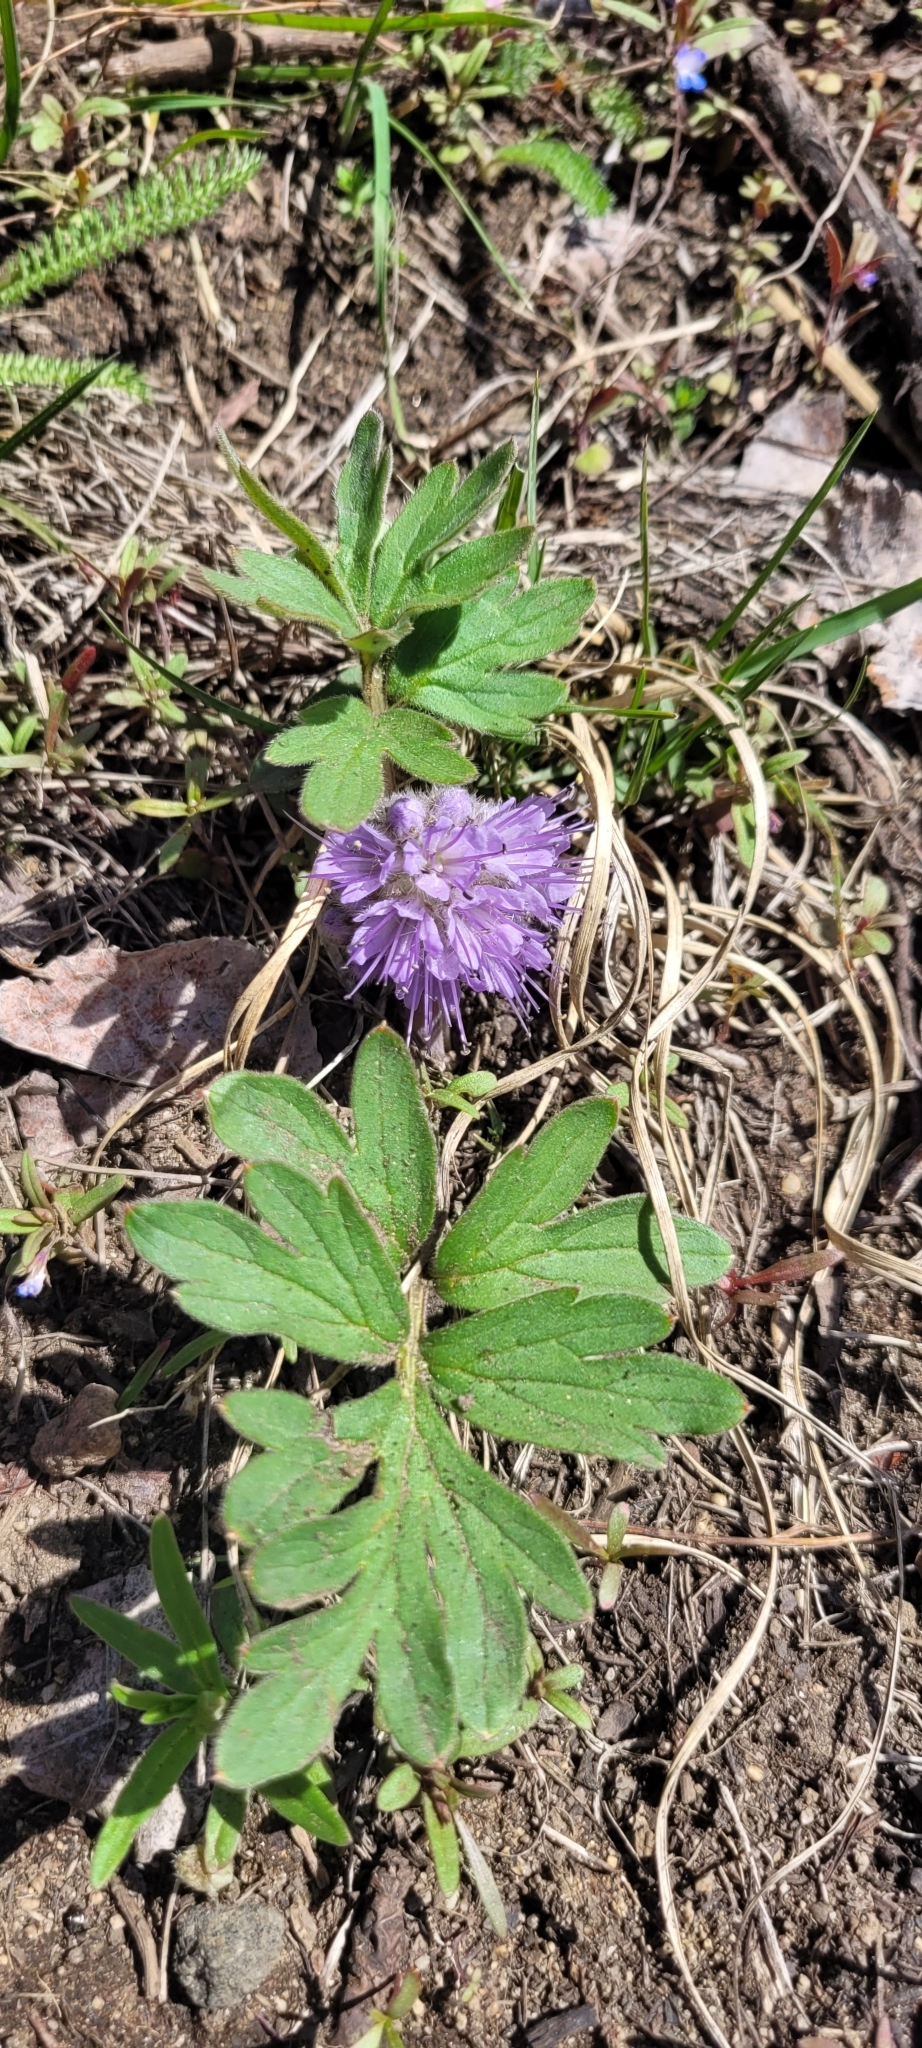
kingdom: Plantae
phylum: Tracheophyta
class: Magnoliopsida
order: Boraginales
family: Hydrophyllaceae
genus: Hydrophyllum
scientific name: Hydrophyllum capitatum
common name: Woollen-breeches
